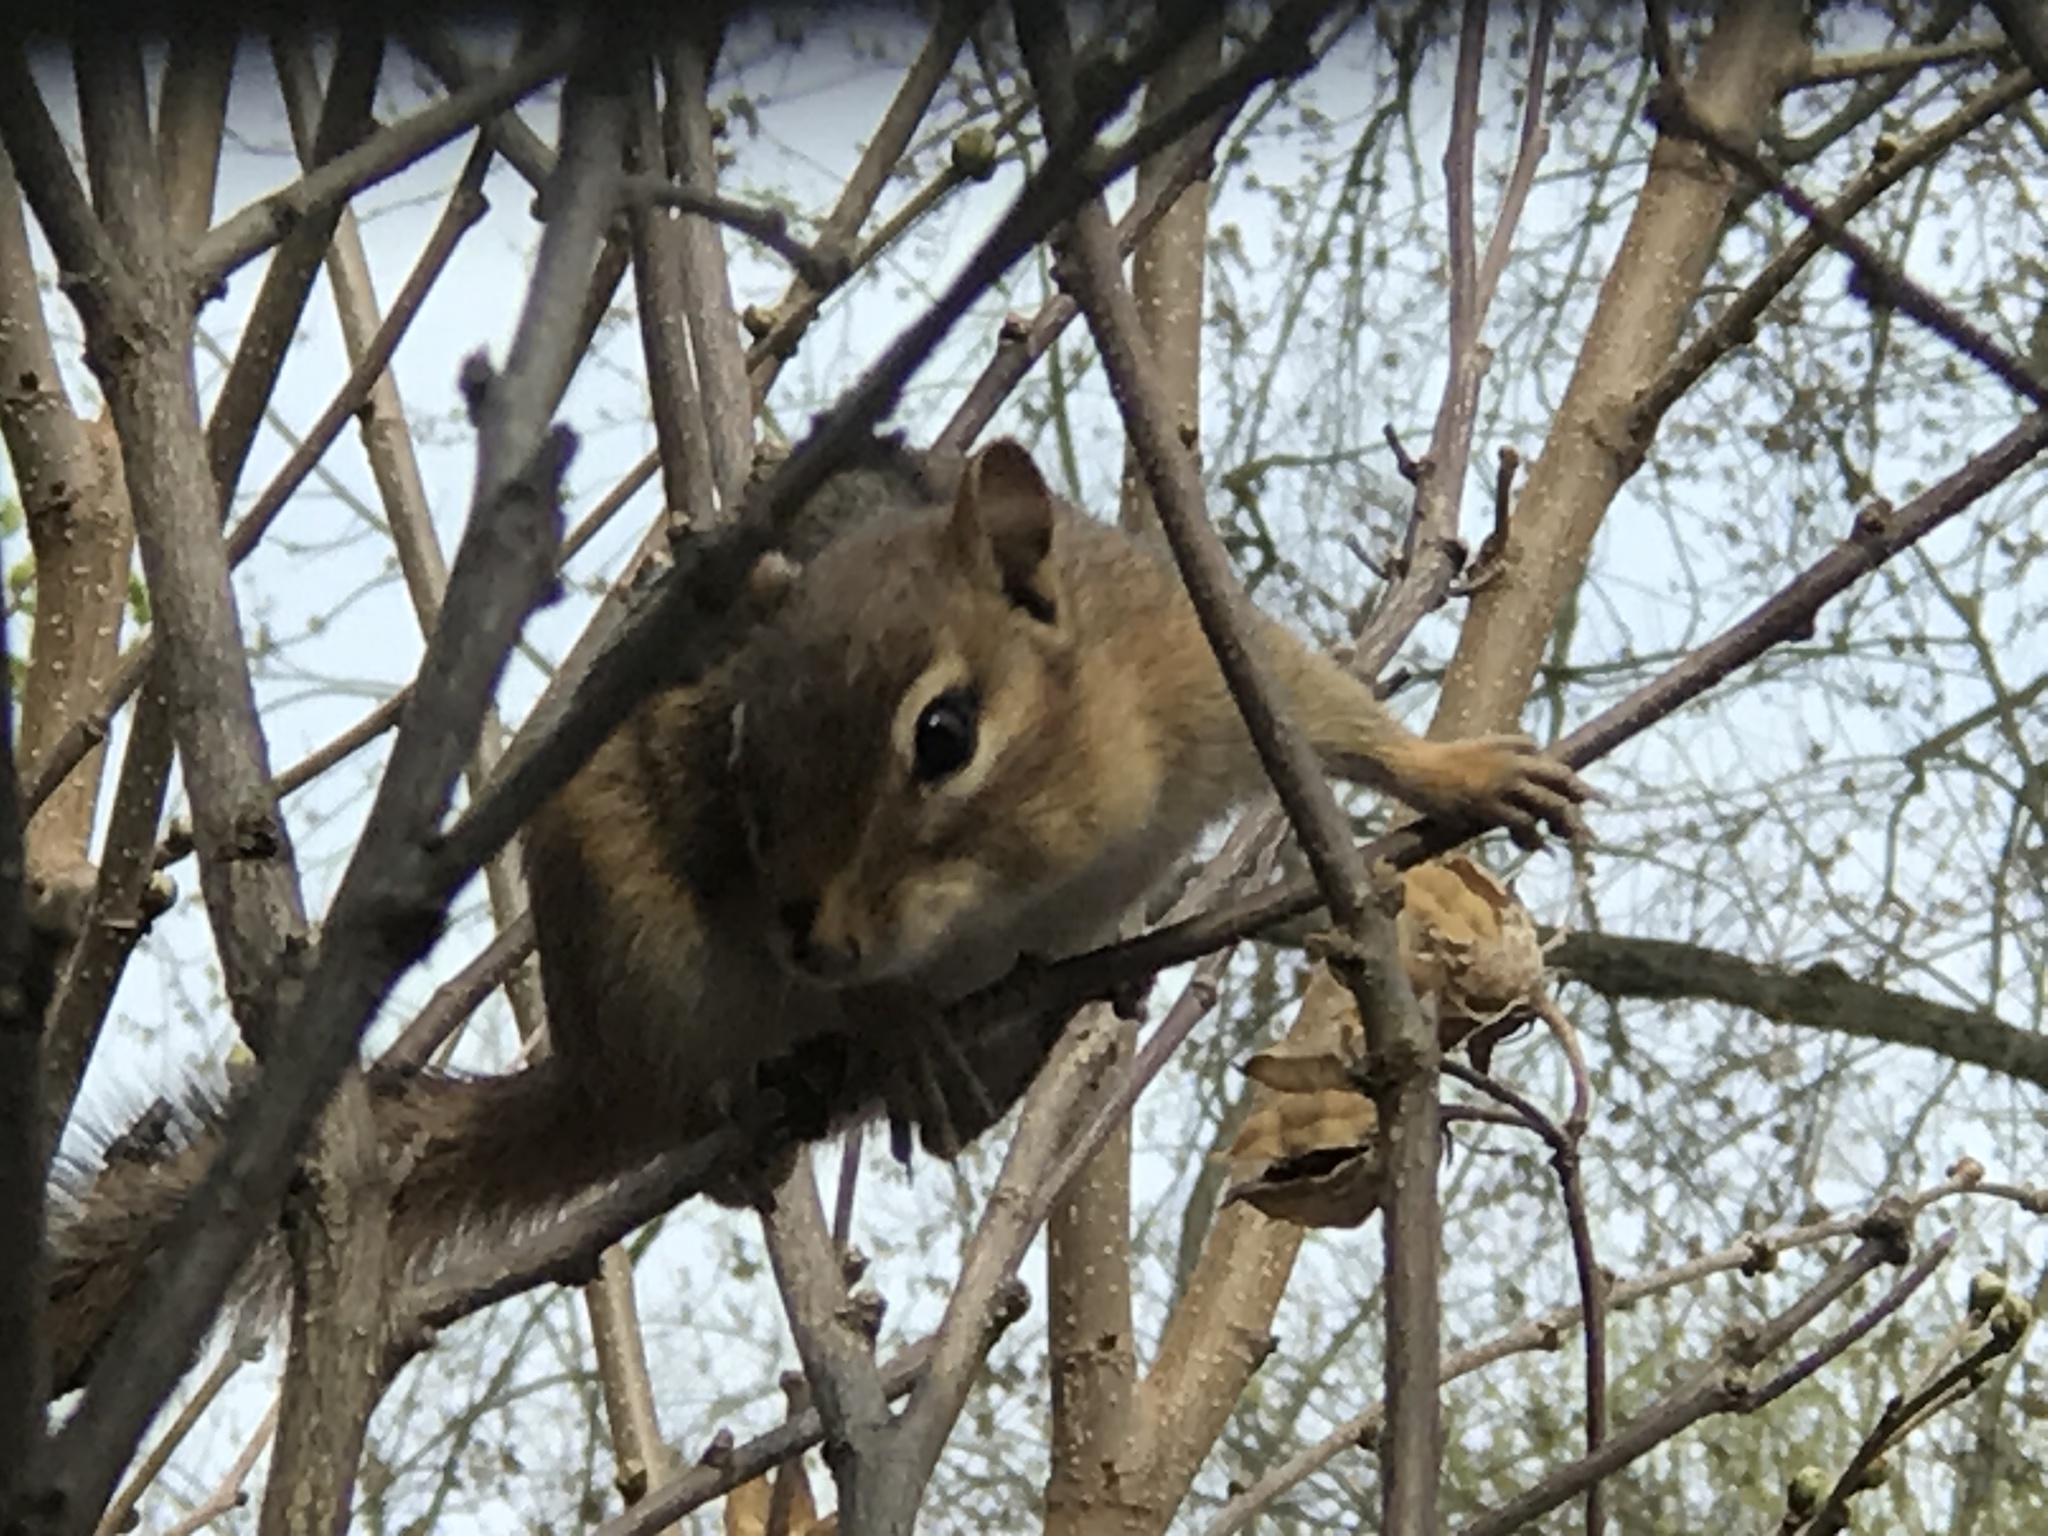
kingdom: Animalia
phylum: Chordata
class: Mammalia
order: Rodentia
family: Sciuridae
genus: Tamias
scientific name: Tamias striatus
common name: Eastern chipmunk
